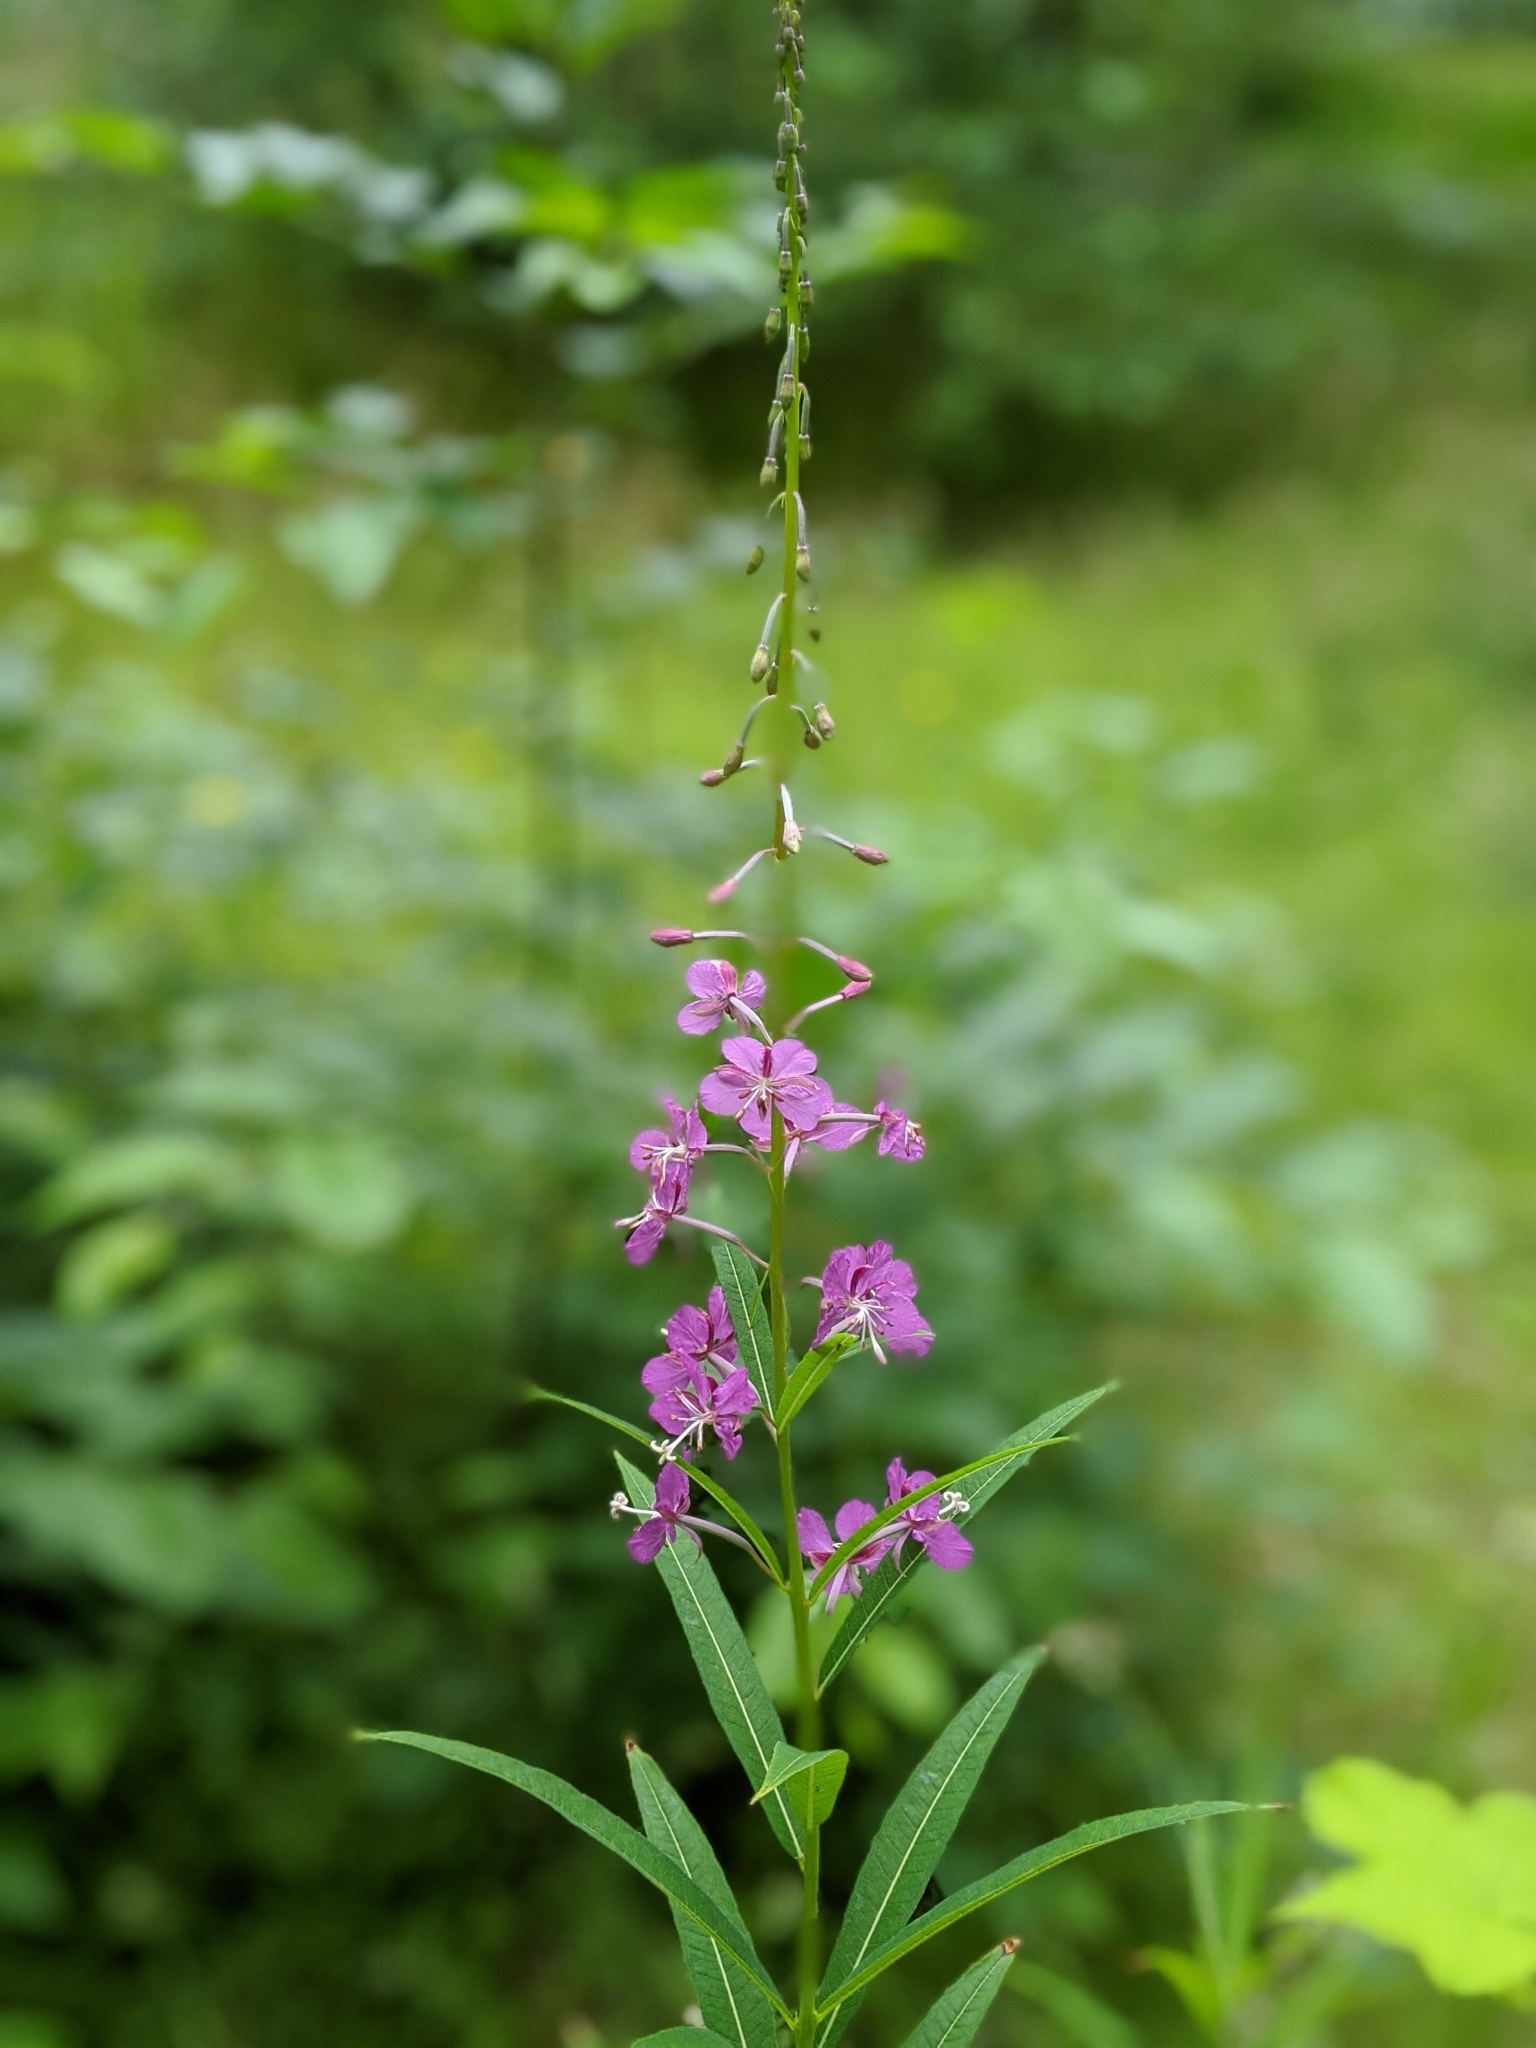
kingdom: Plantae
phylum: Tracheophyta
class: Magnoliopsida
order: Myrtales
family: Onagraceae
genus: Chamaenerion
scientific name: Chamaenerion angustifolium
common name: Fireweed
